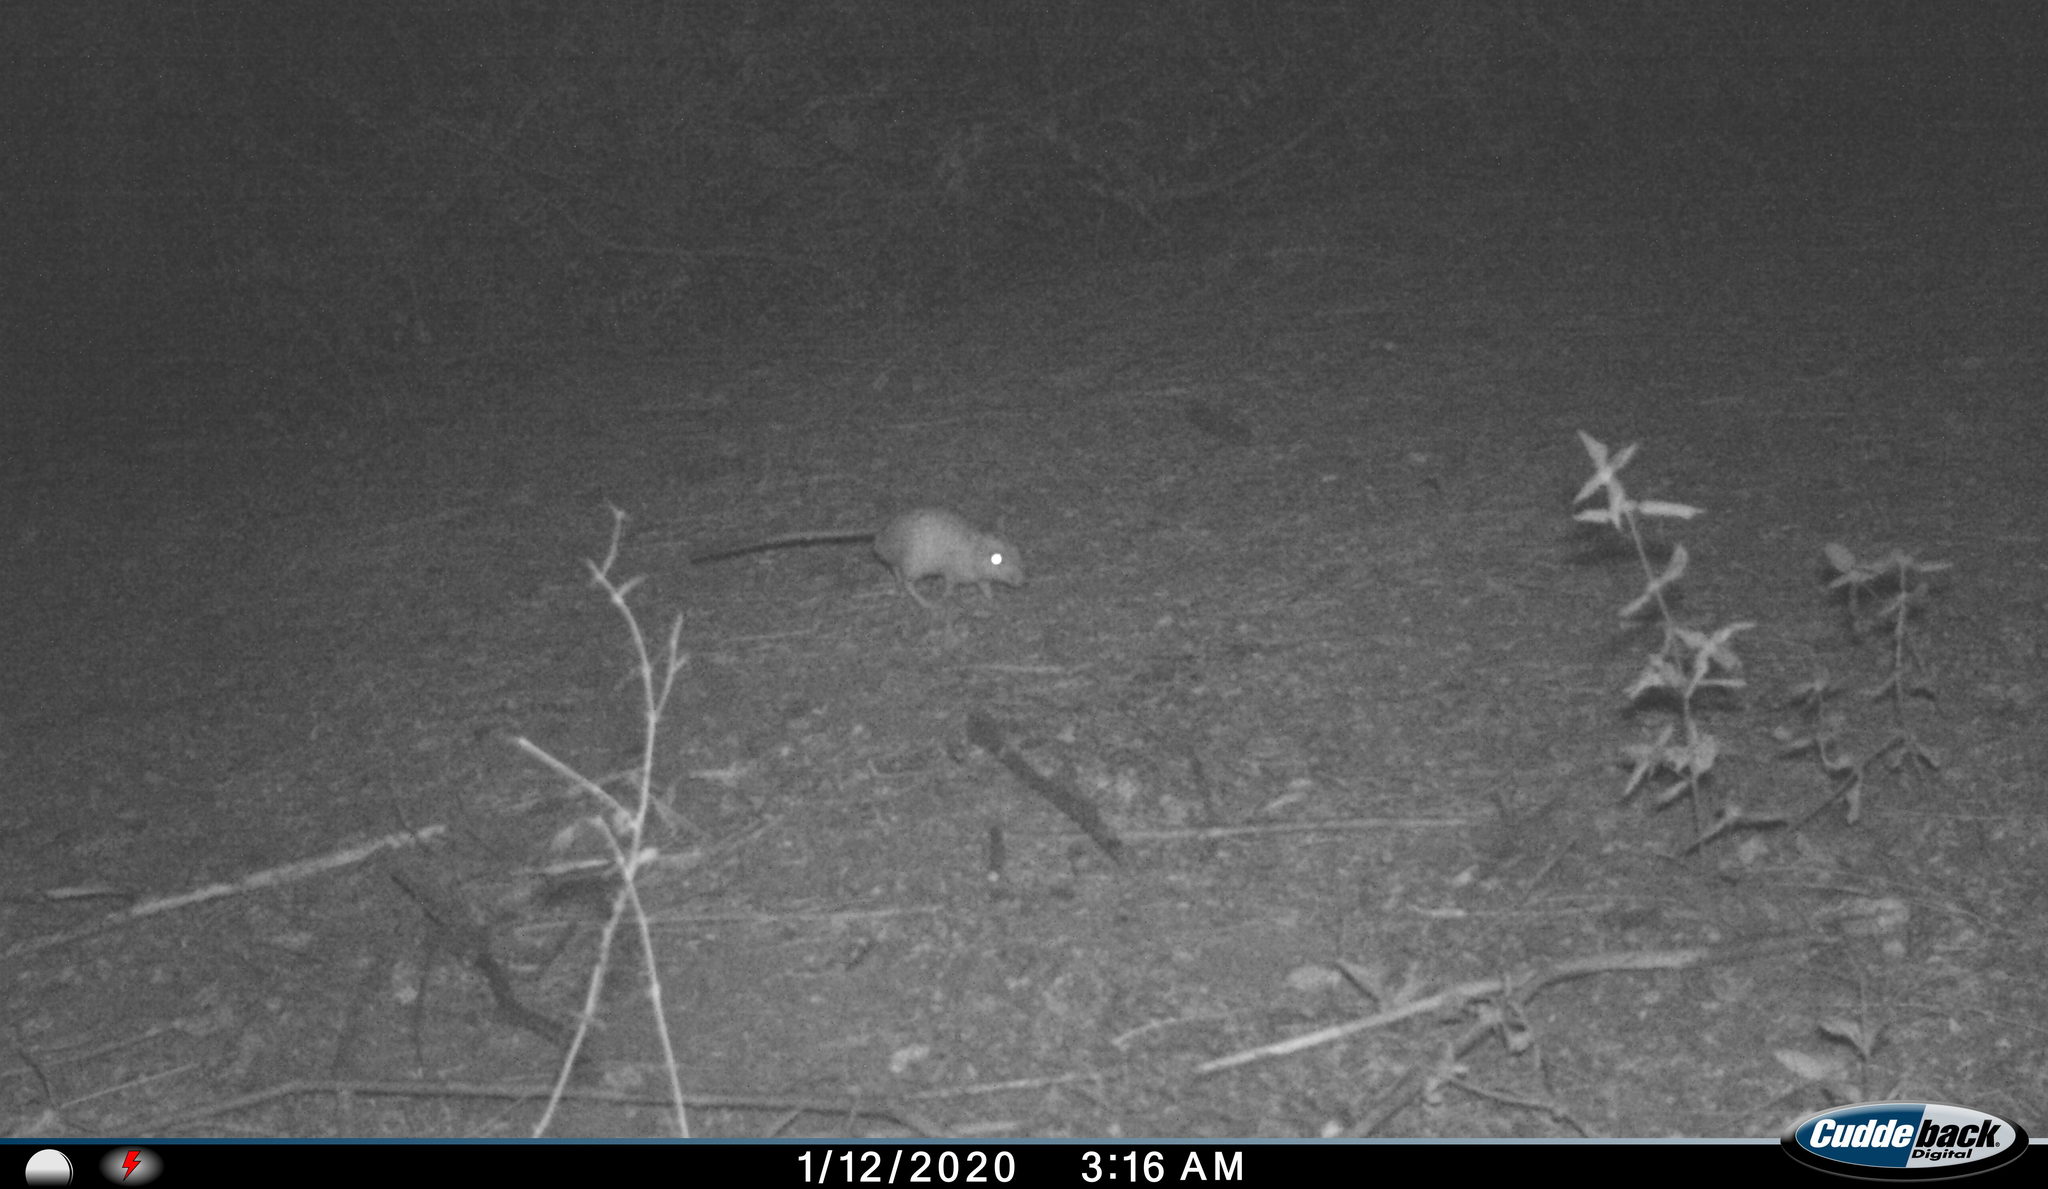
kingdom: Animalia
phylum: Chordata
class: Mammalia
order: Rodentia
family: Muridae
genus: Tatera
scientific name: Tatera indica
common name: Indian gerbil
